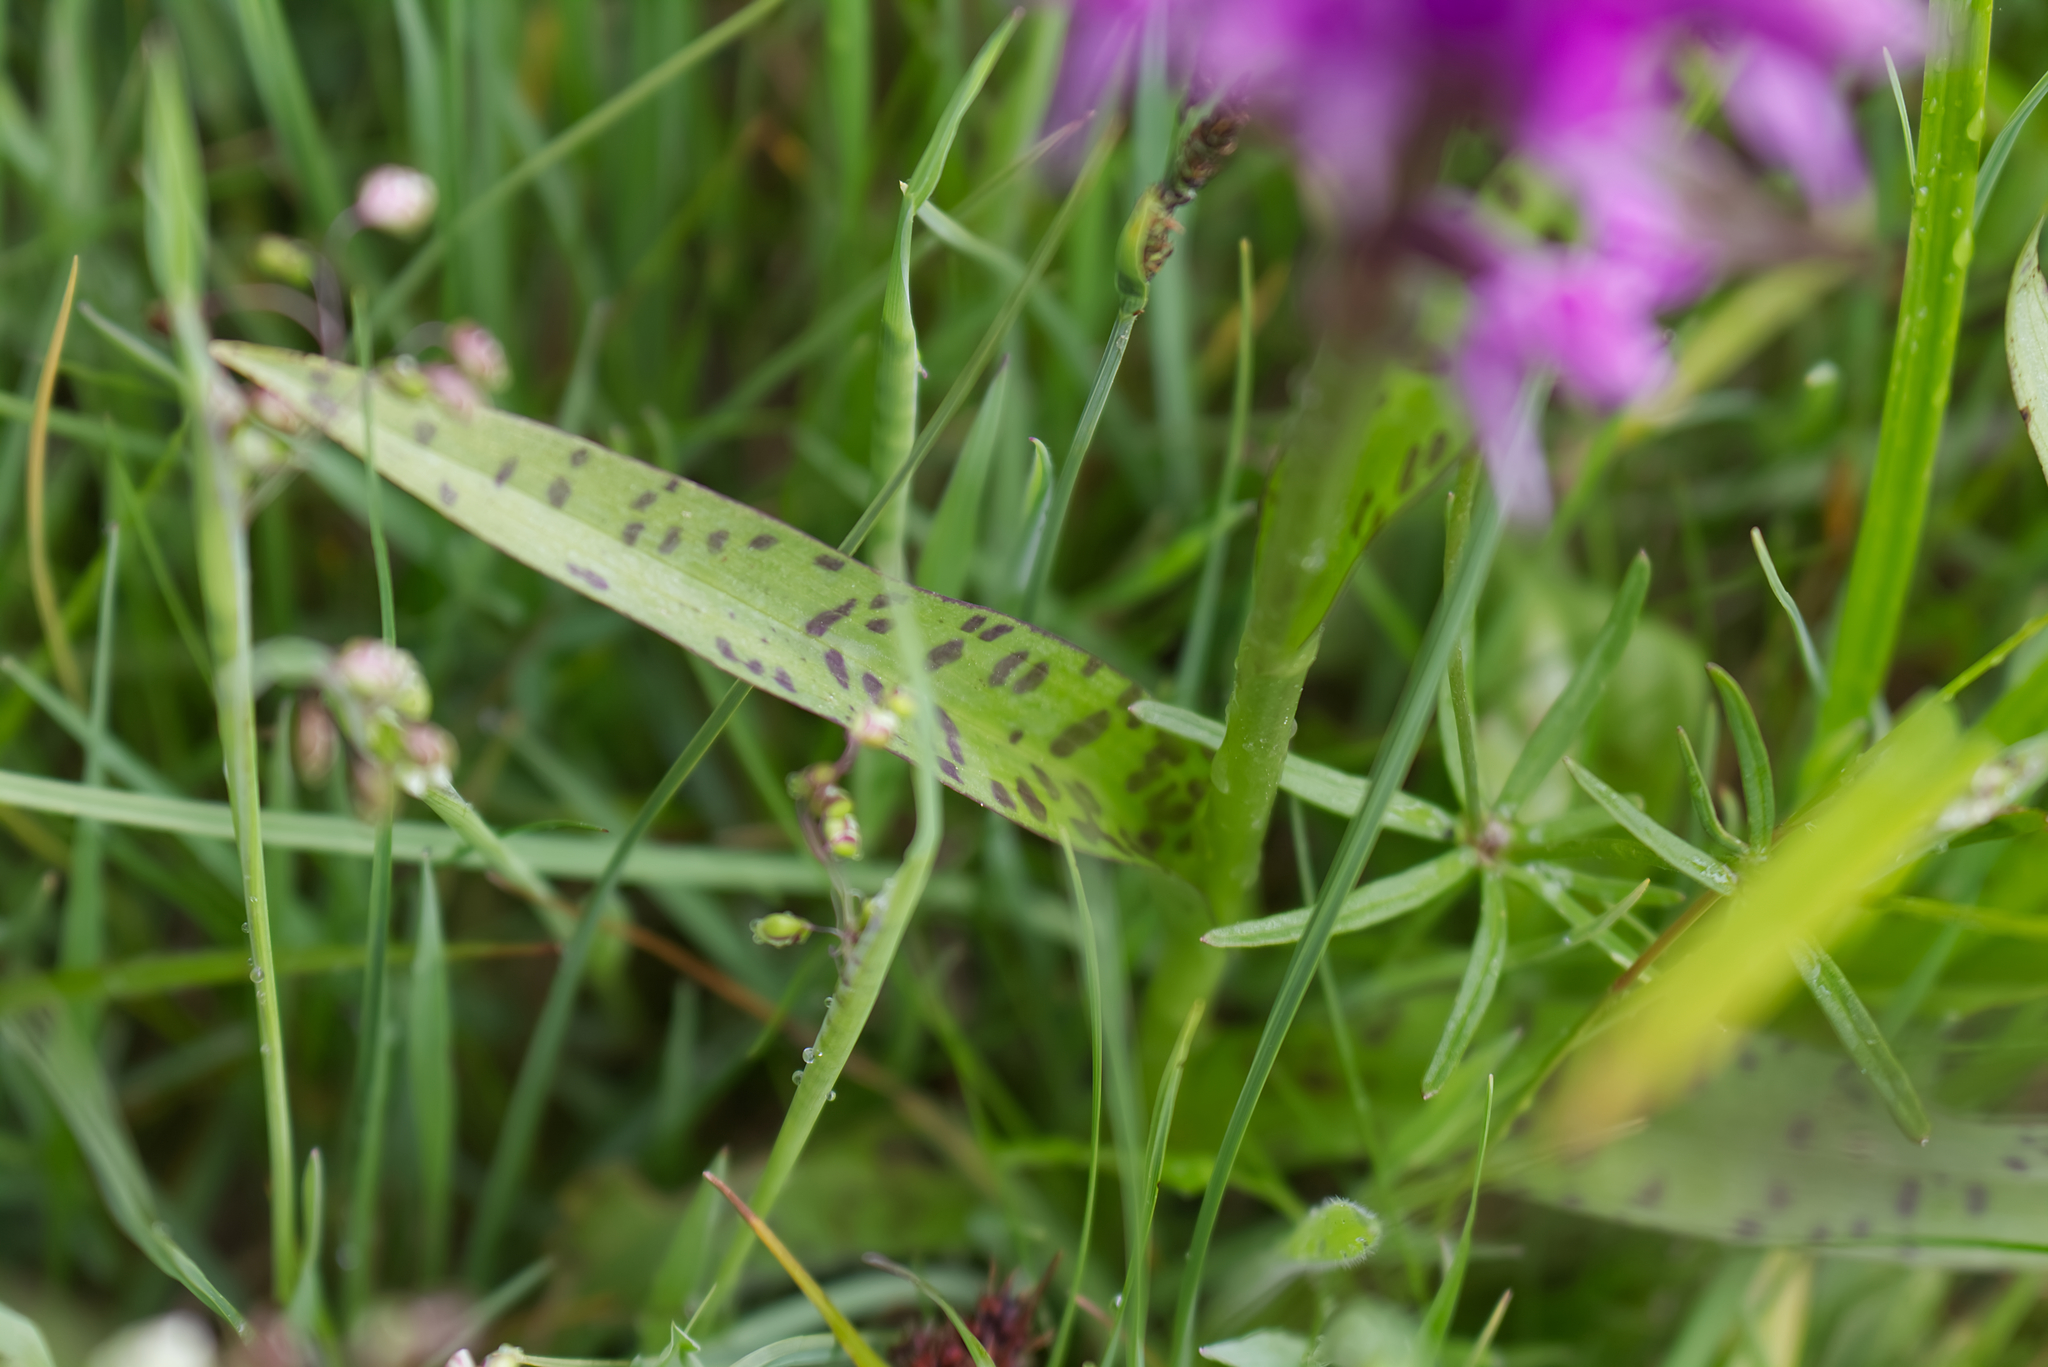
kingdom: Plantae
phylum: Tracheophyta
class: Liliopsida
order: Asparagales
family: Orchidaceae
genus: Dactylorhiza
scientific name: Dactylorhiza majalis
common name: Marsh orchid
